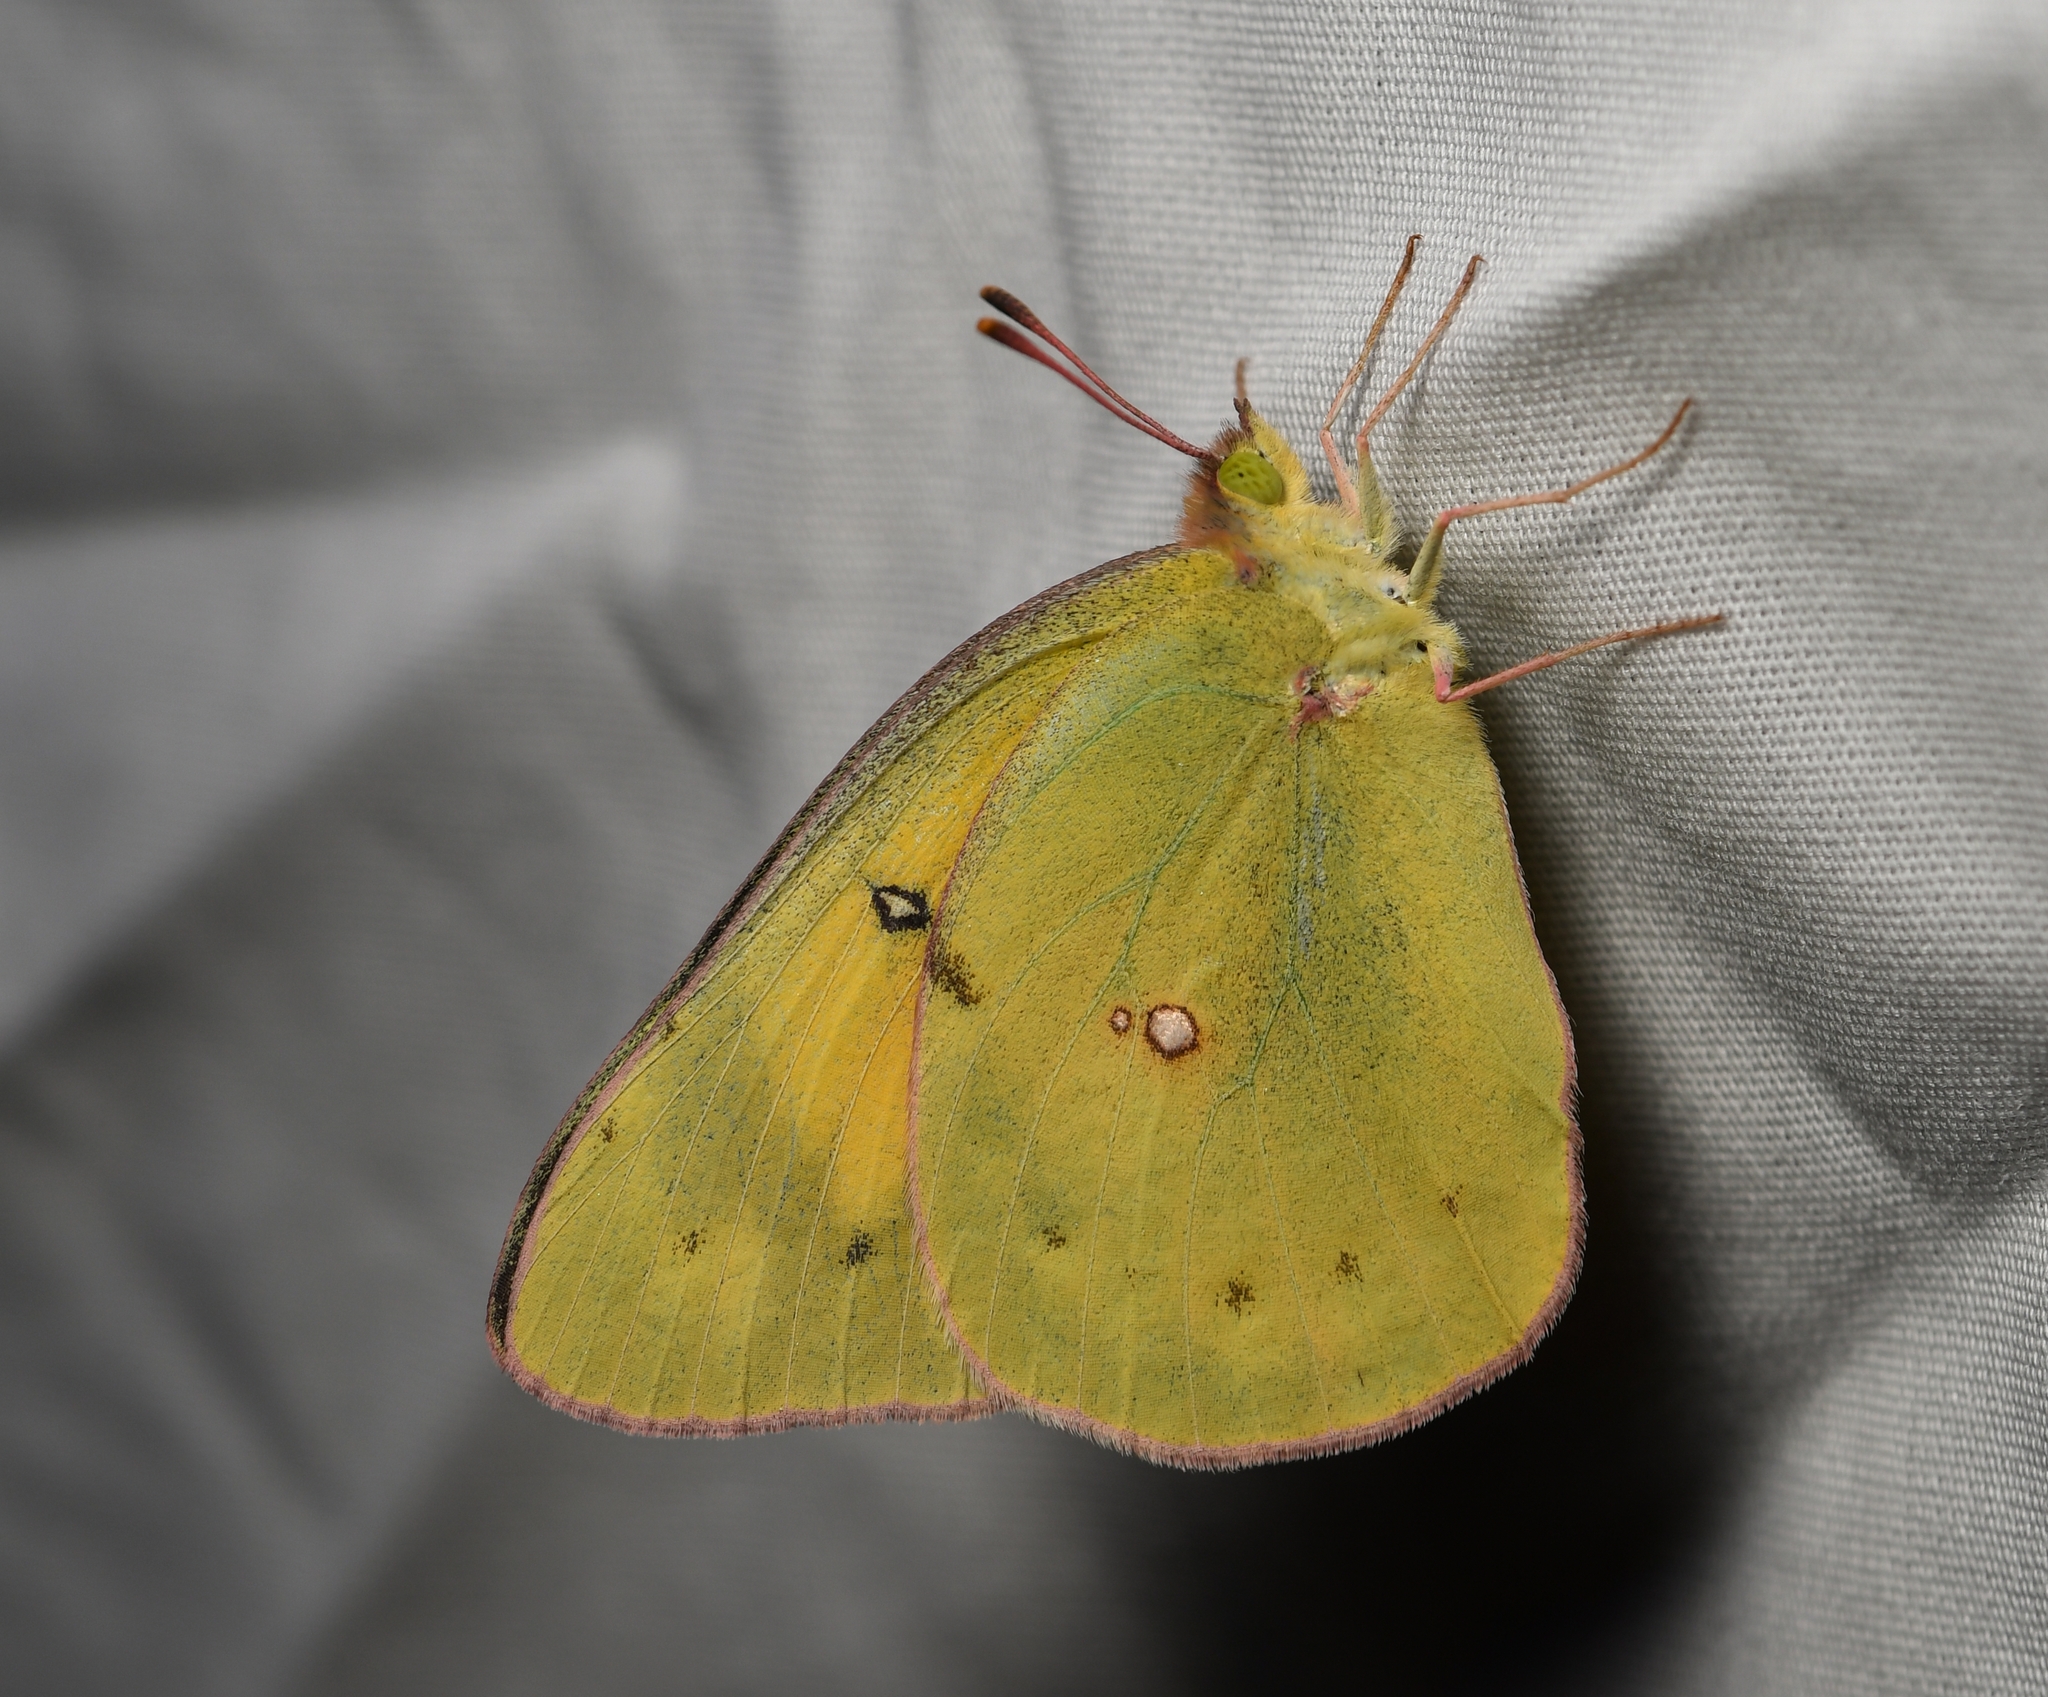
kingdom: Animalia
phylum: Arthropoda
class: Insecta
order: Lepidoptera
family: Pieridae
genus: Colias
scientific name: Colias eurytheme
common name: Alfalfa butterfly
